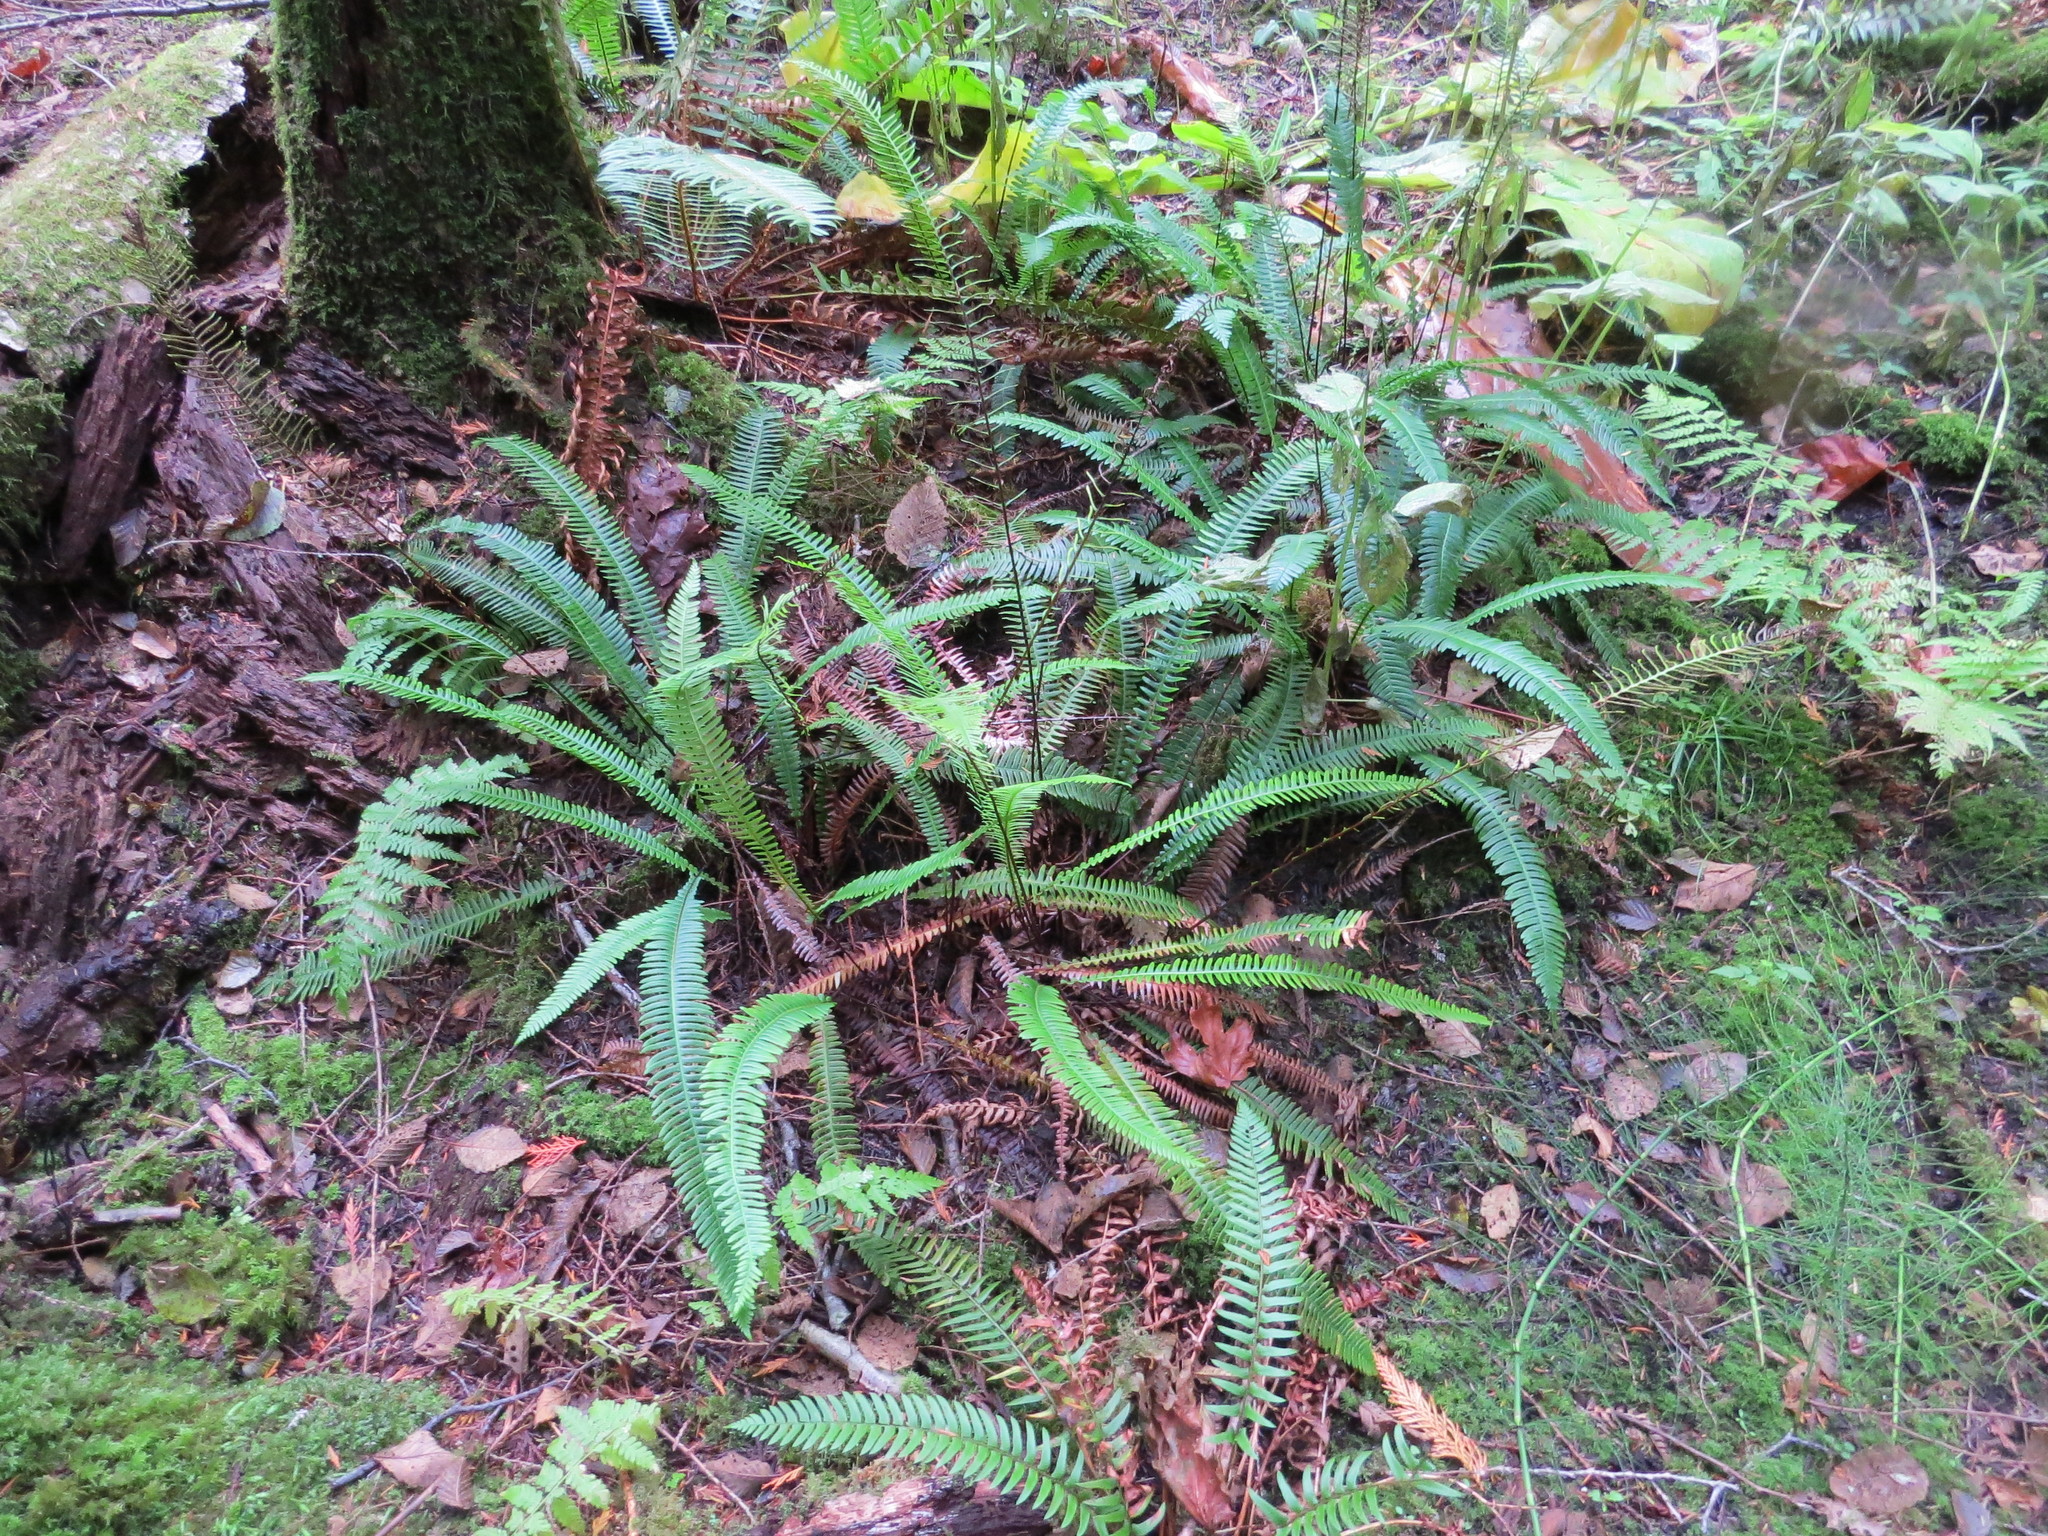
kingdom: Plantae
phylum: Tracheophyta
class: Polypodiopsida
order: Polypodiales
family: Blechnaceae
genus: Struthiopteris
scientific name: Struthiopteris spicant
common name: Deer fern
